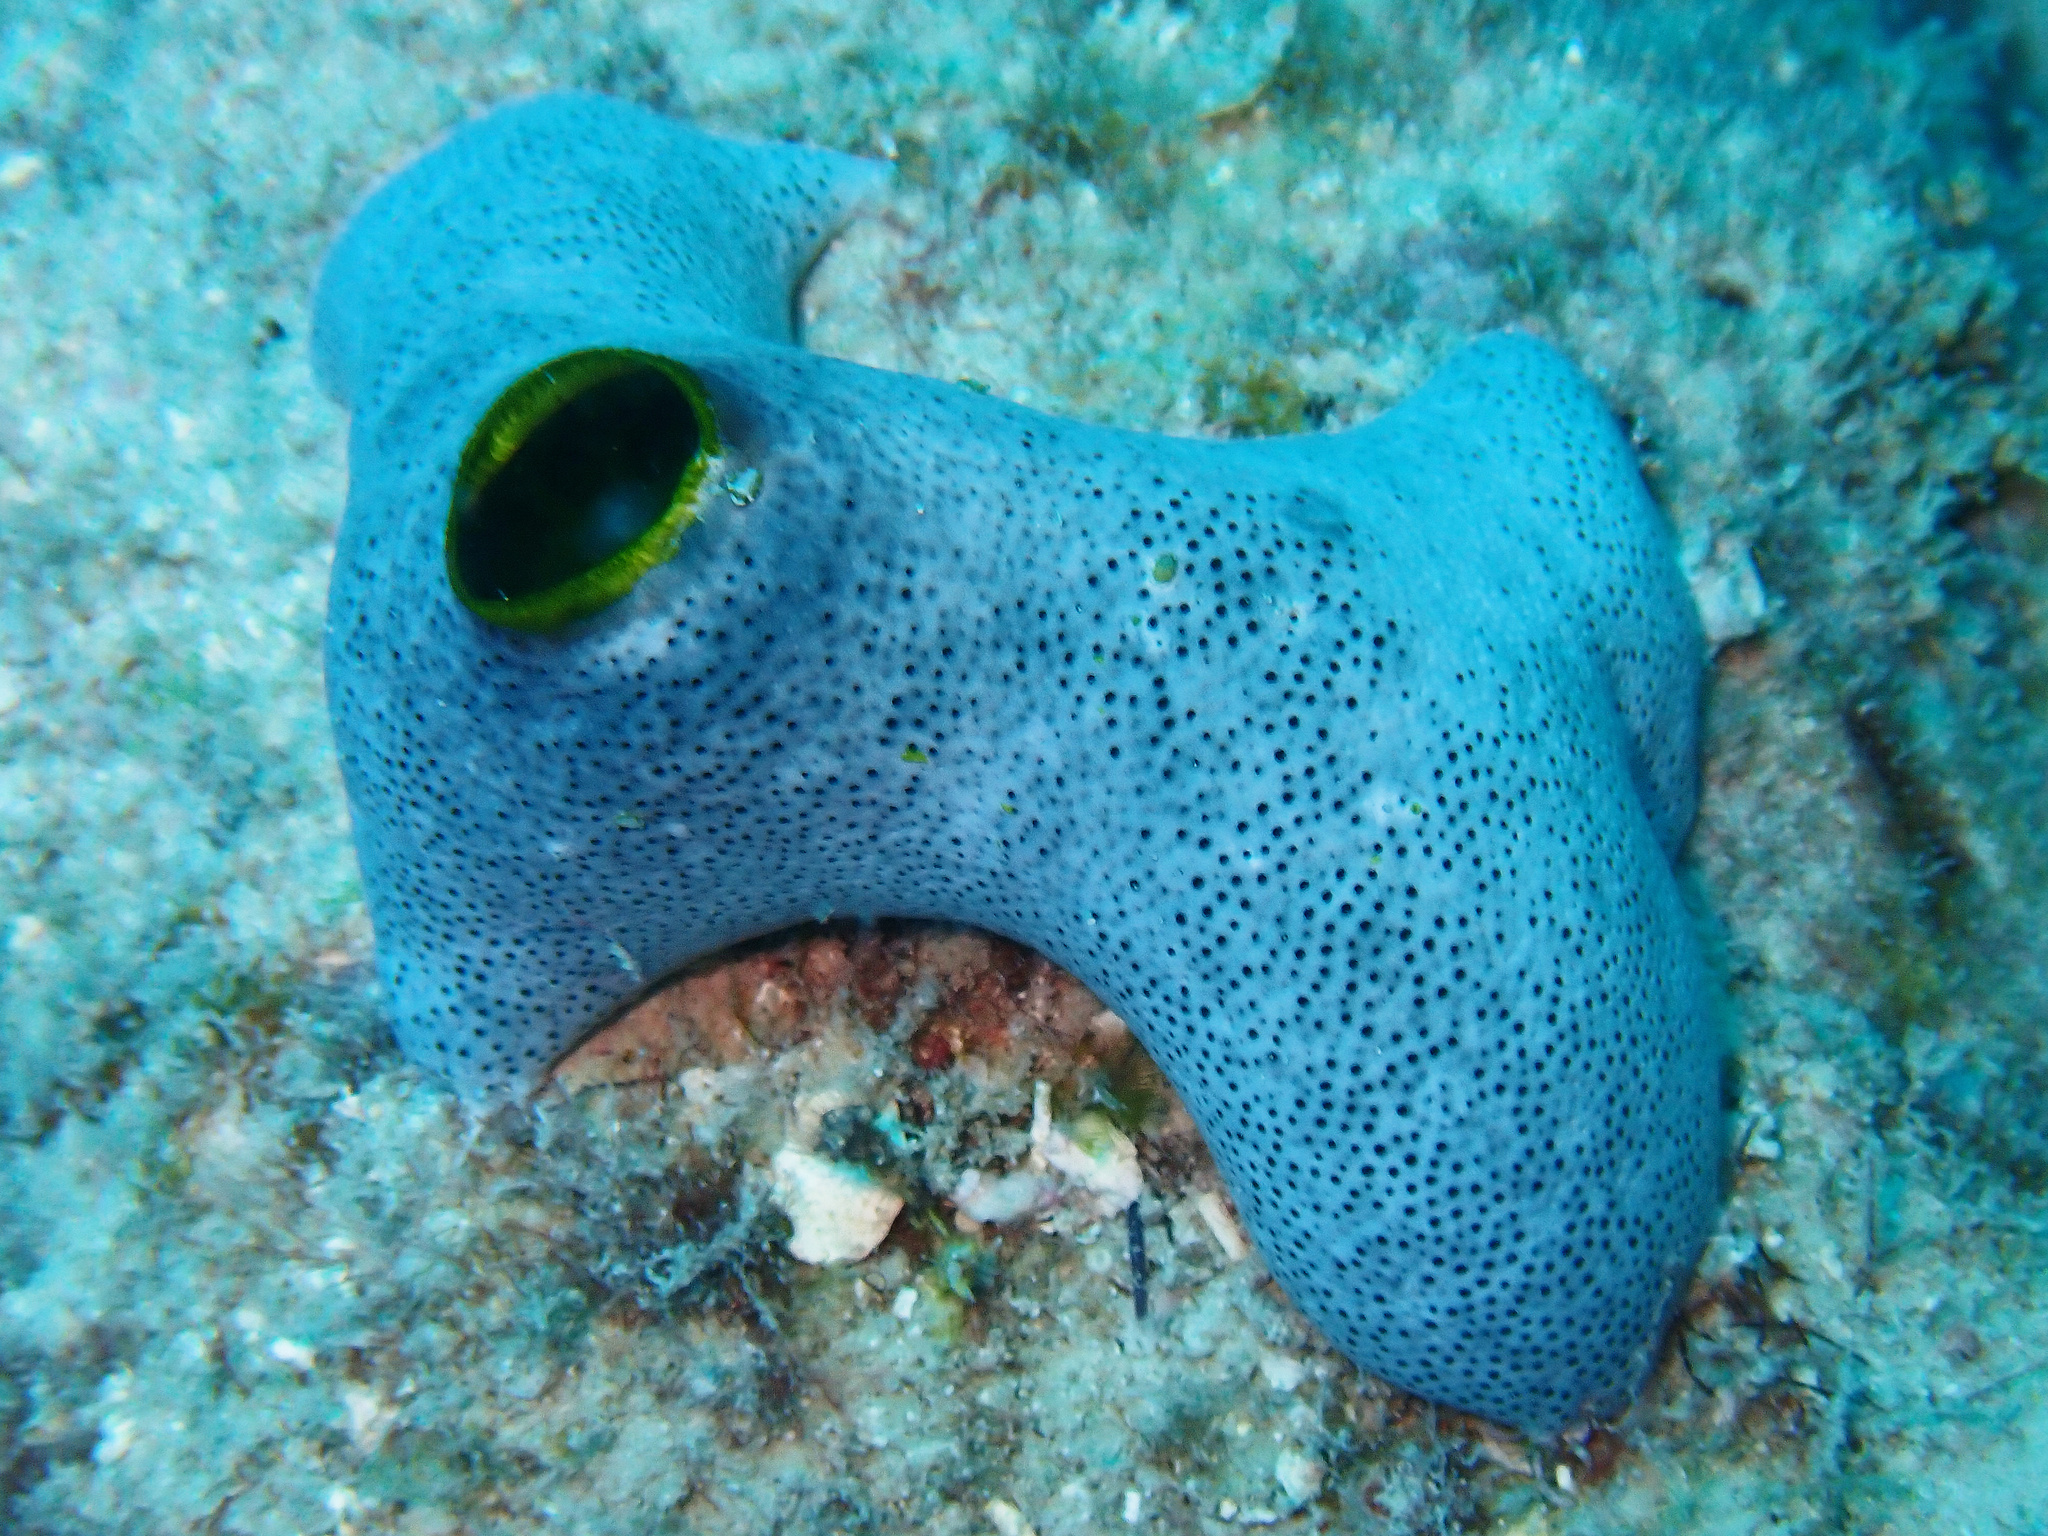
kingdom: Animalia
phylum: Chordata
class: Ascidiacea
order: Aplousobranchia
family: Didemnidae
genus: Didemnum
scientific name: Didemnum molle
